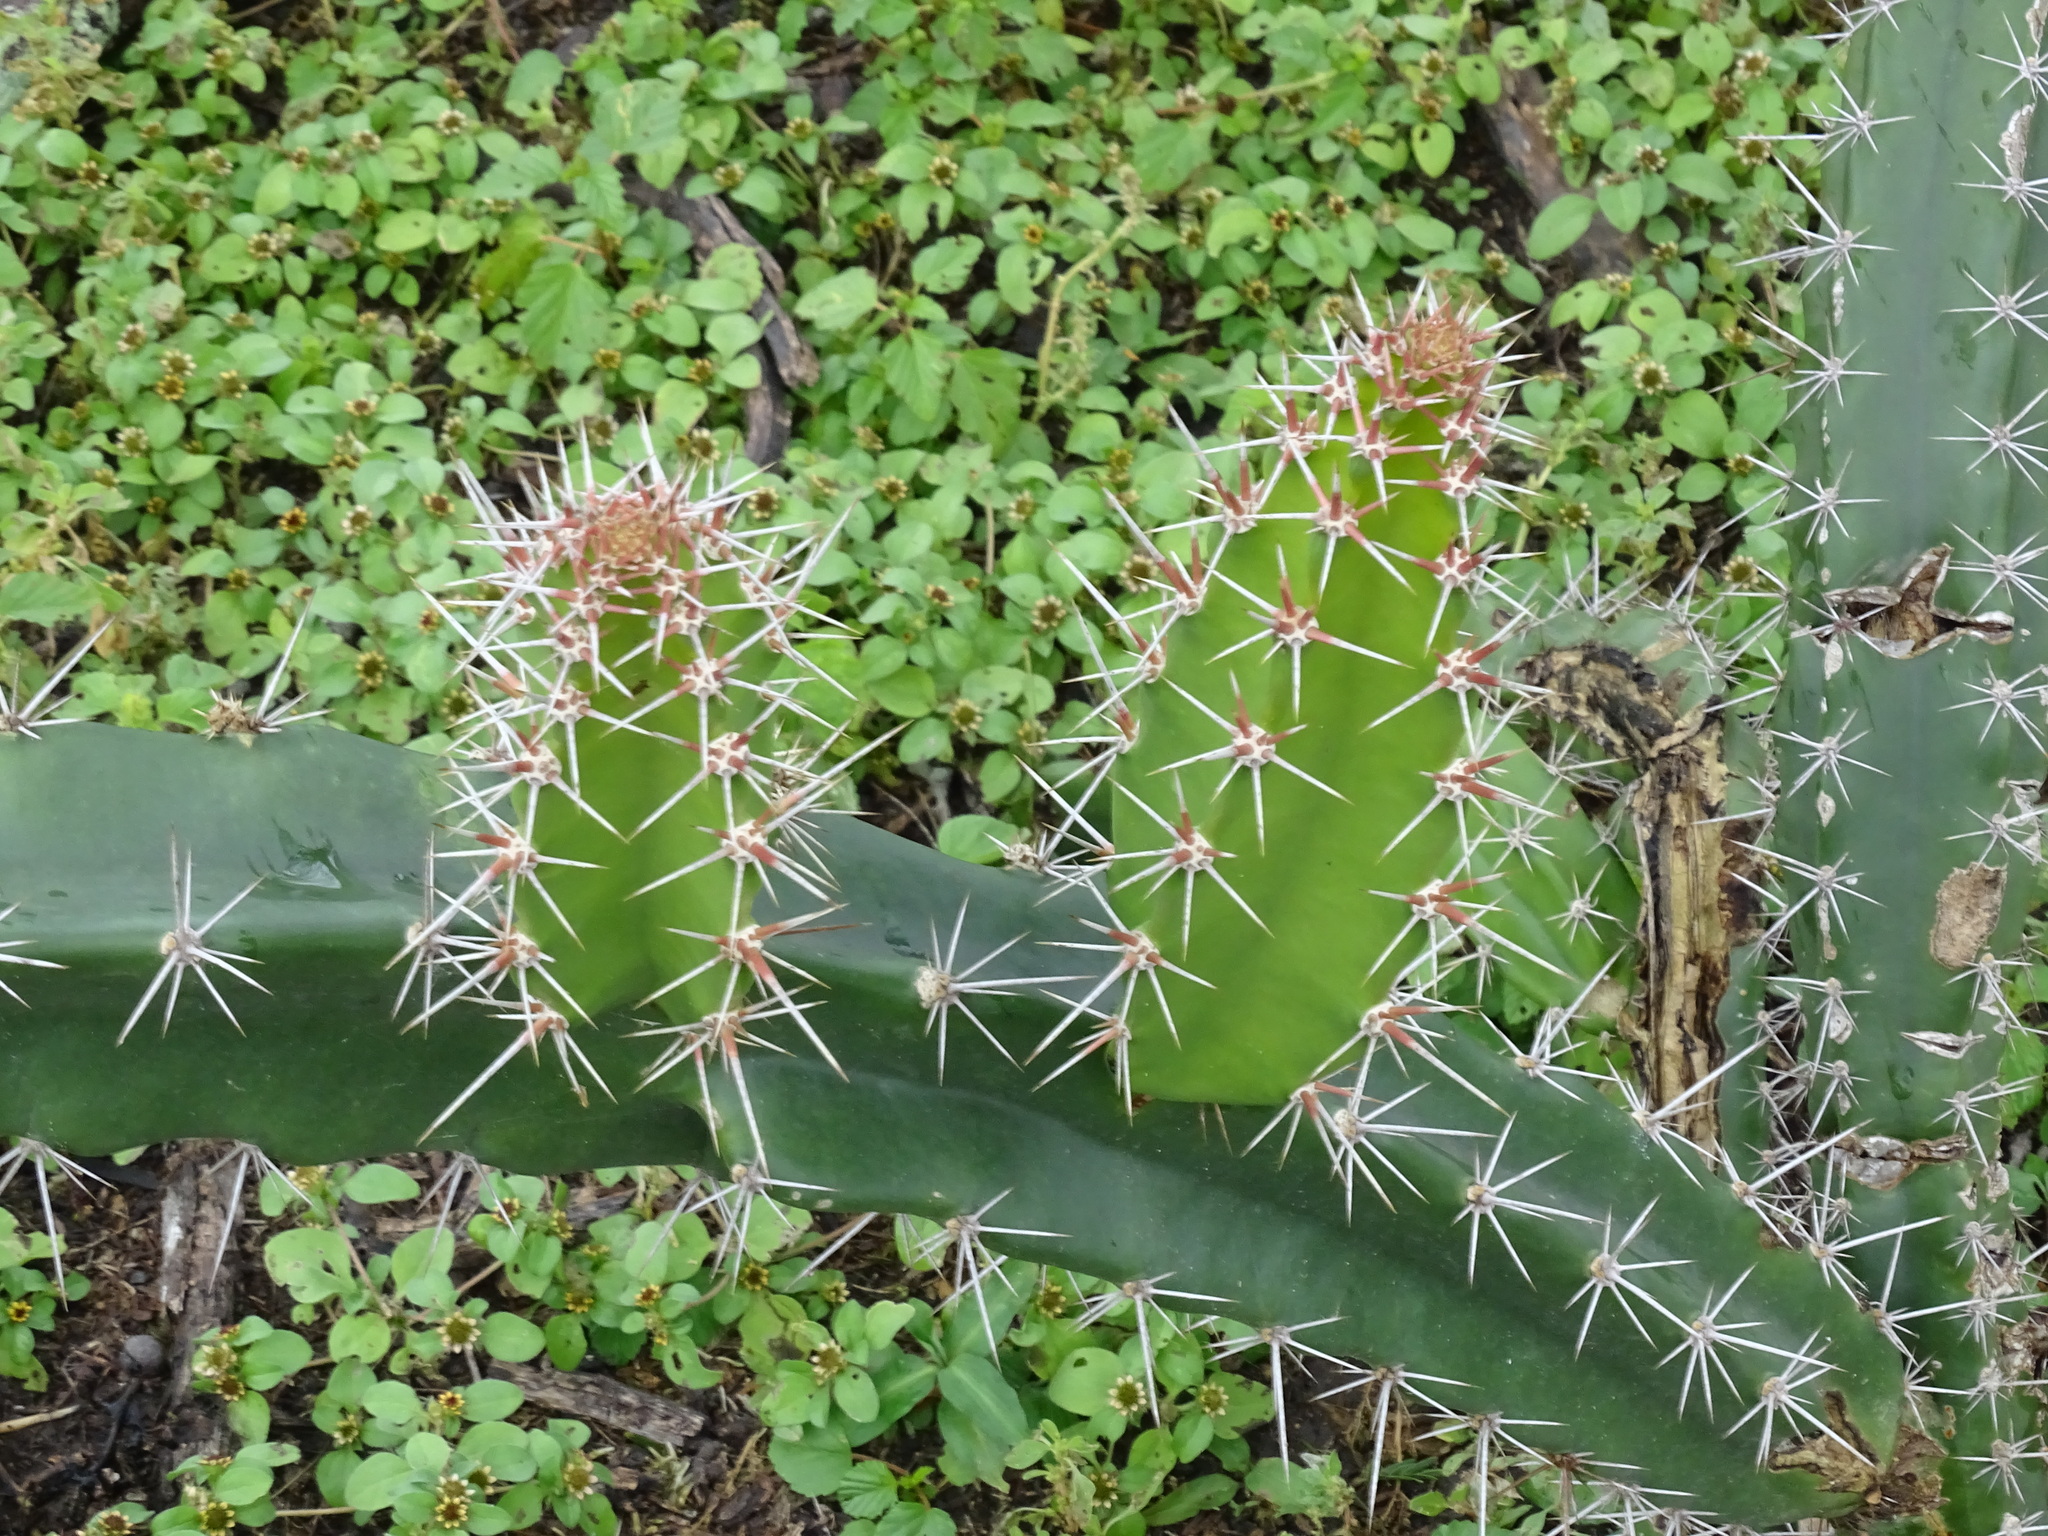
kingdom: Plantae
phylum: Tracheophyta
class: Magnoliopsida
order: Caryophyllales
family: Cactaceae
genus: Acanthocereus
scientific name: Acanthocereus tetragonus
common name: Triangle cactus
